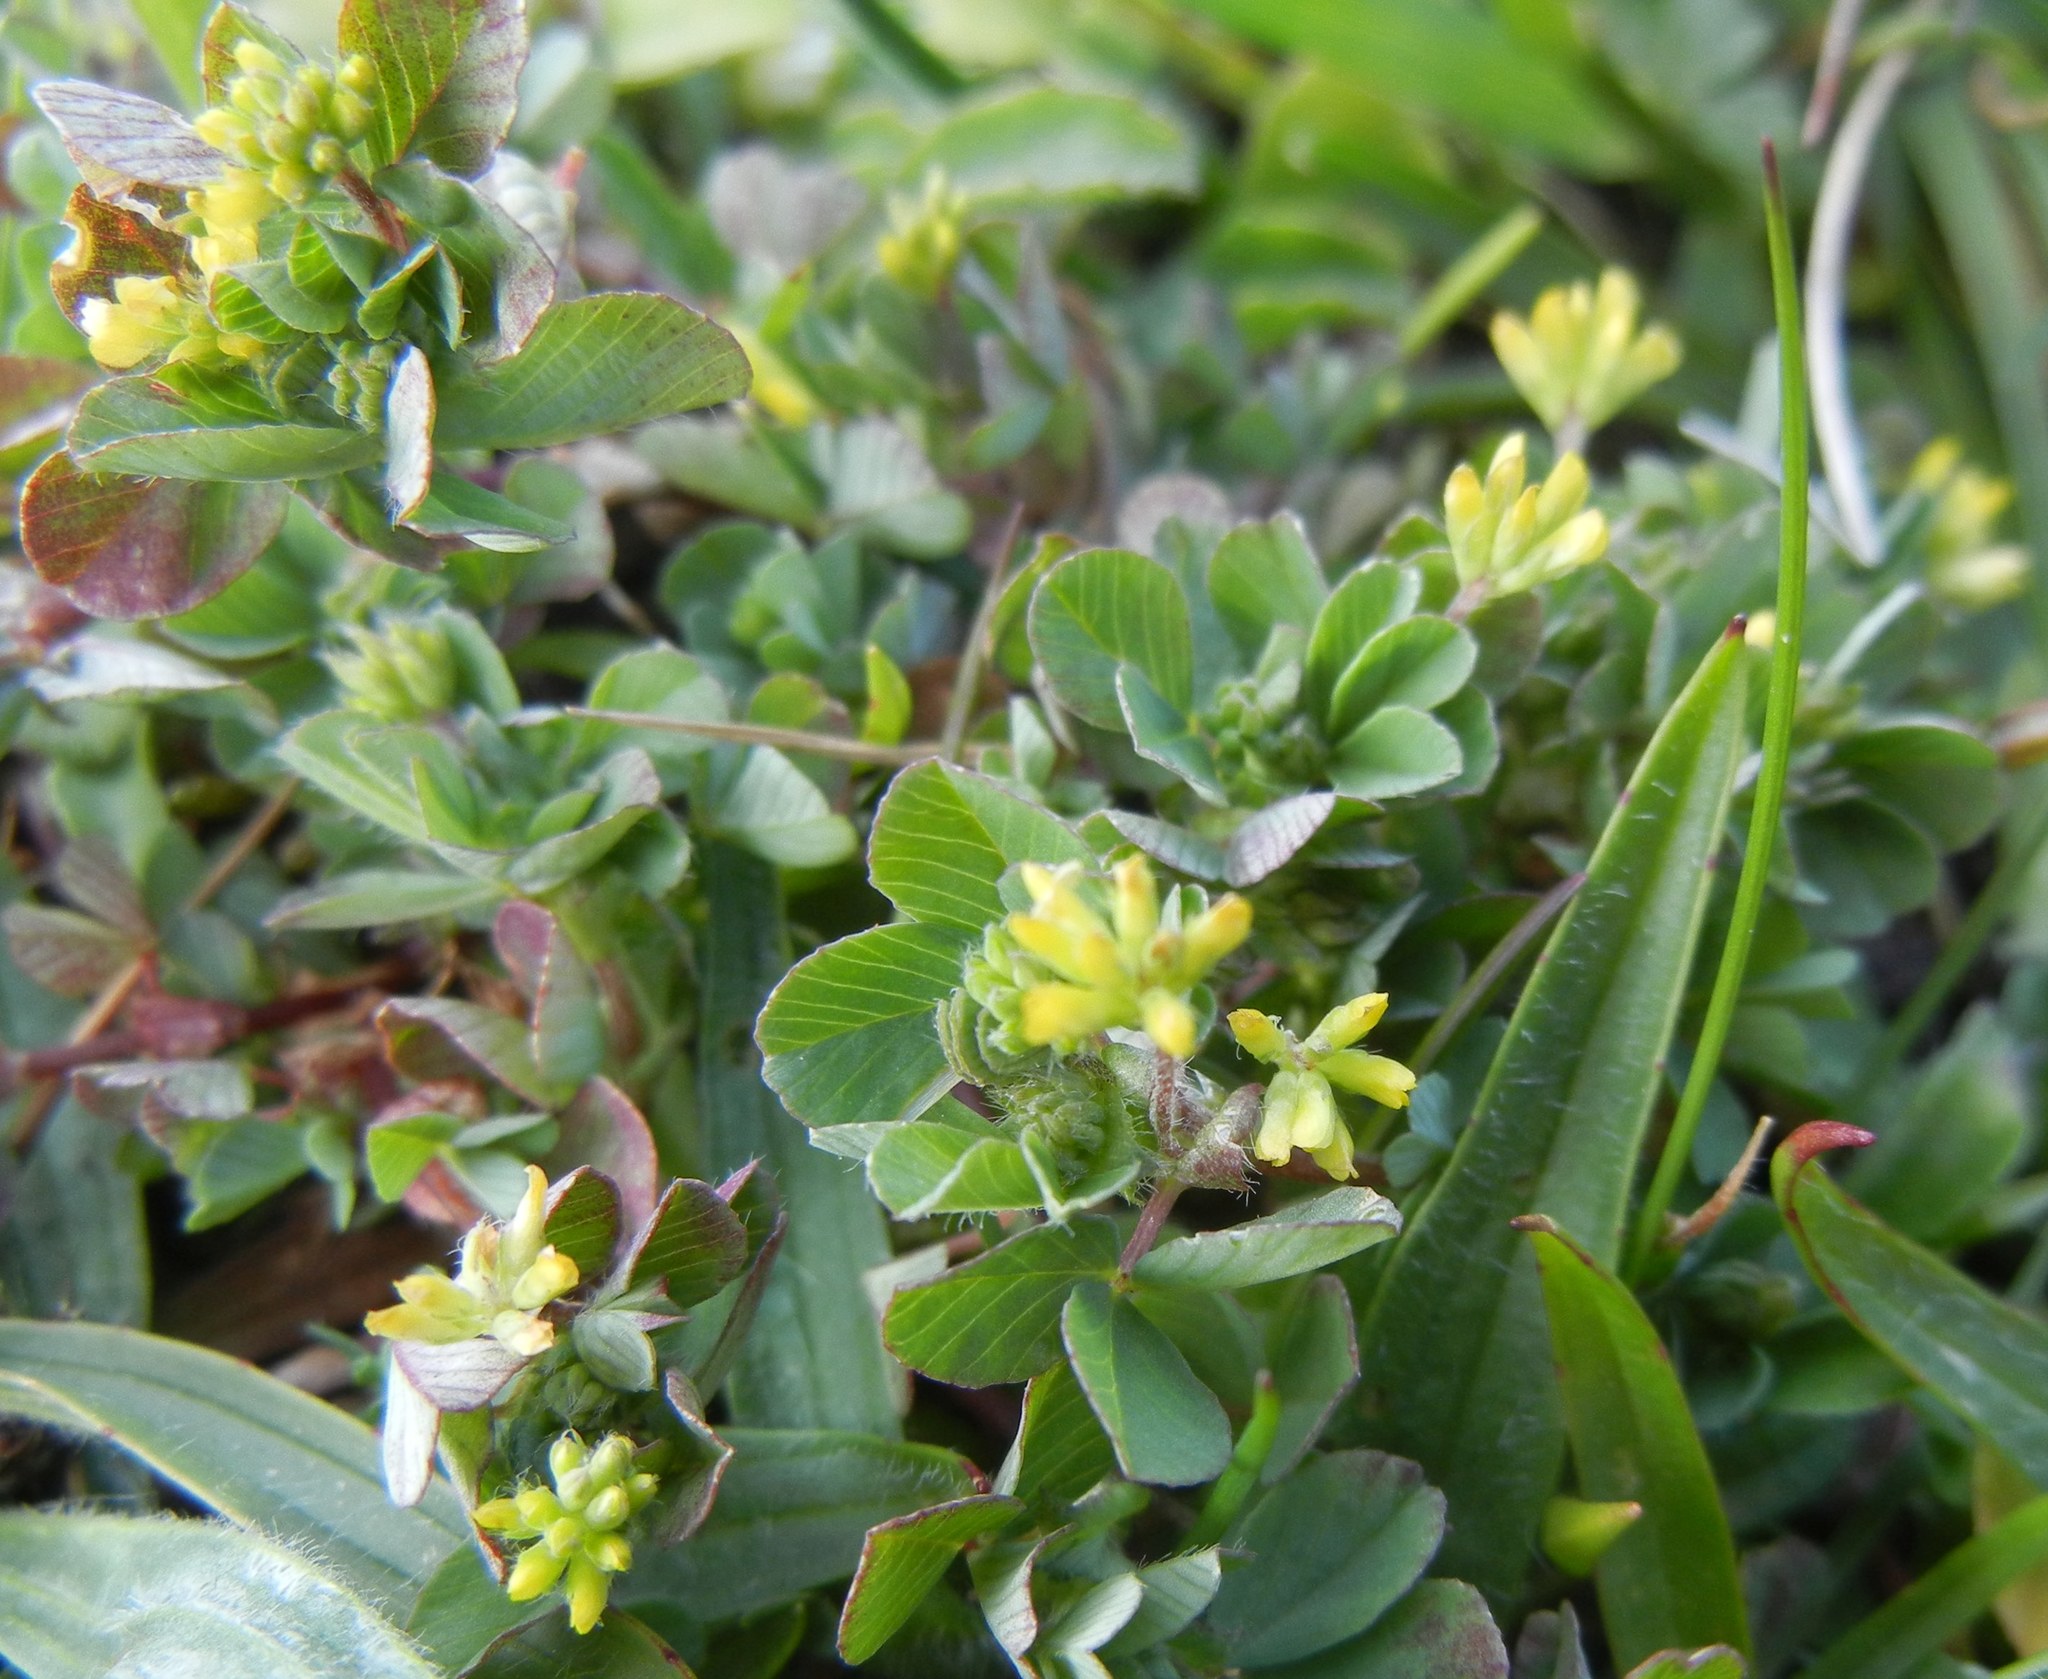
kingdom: Plantae
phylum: Tracheophyta
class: Magnoliopsida
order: Fabales
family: Fabaceae
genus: Trifolium
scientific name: Trifolium dubium
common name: Suckling clover
